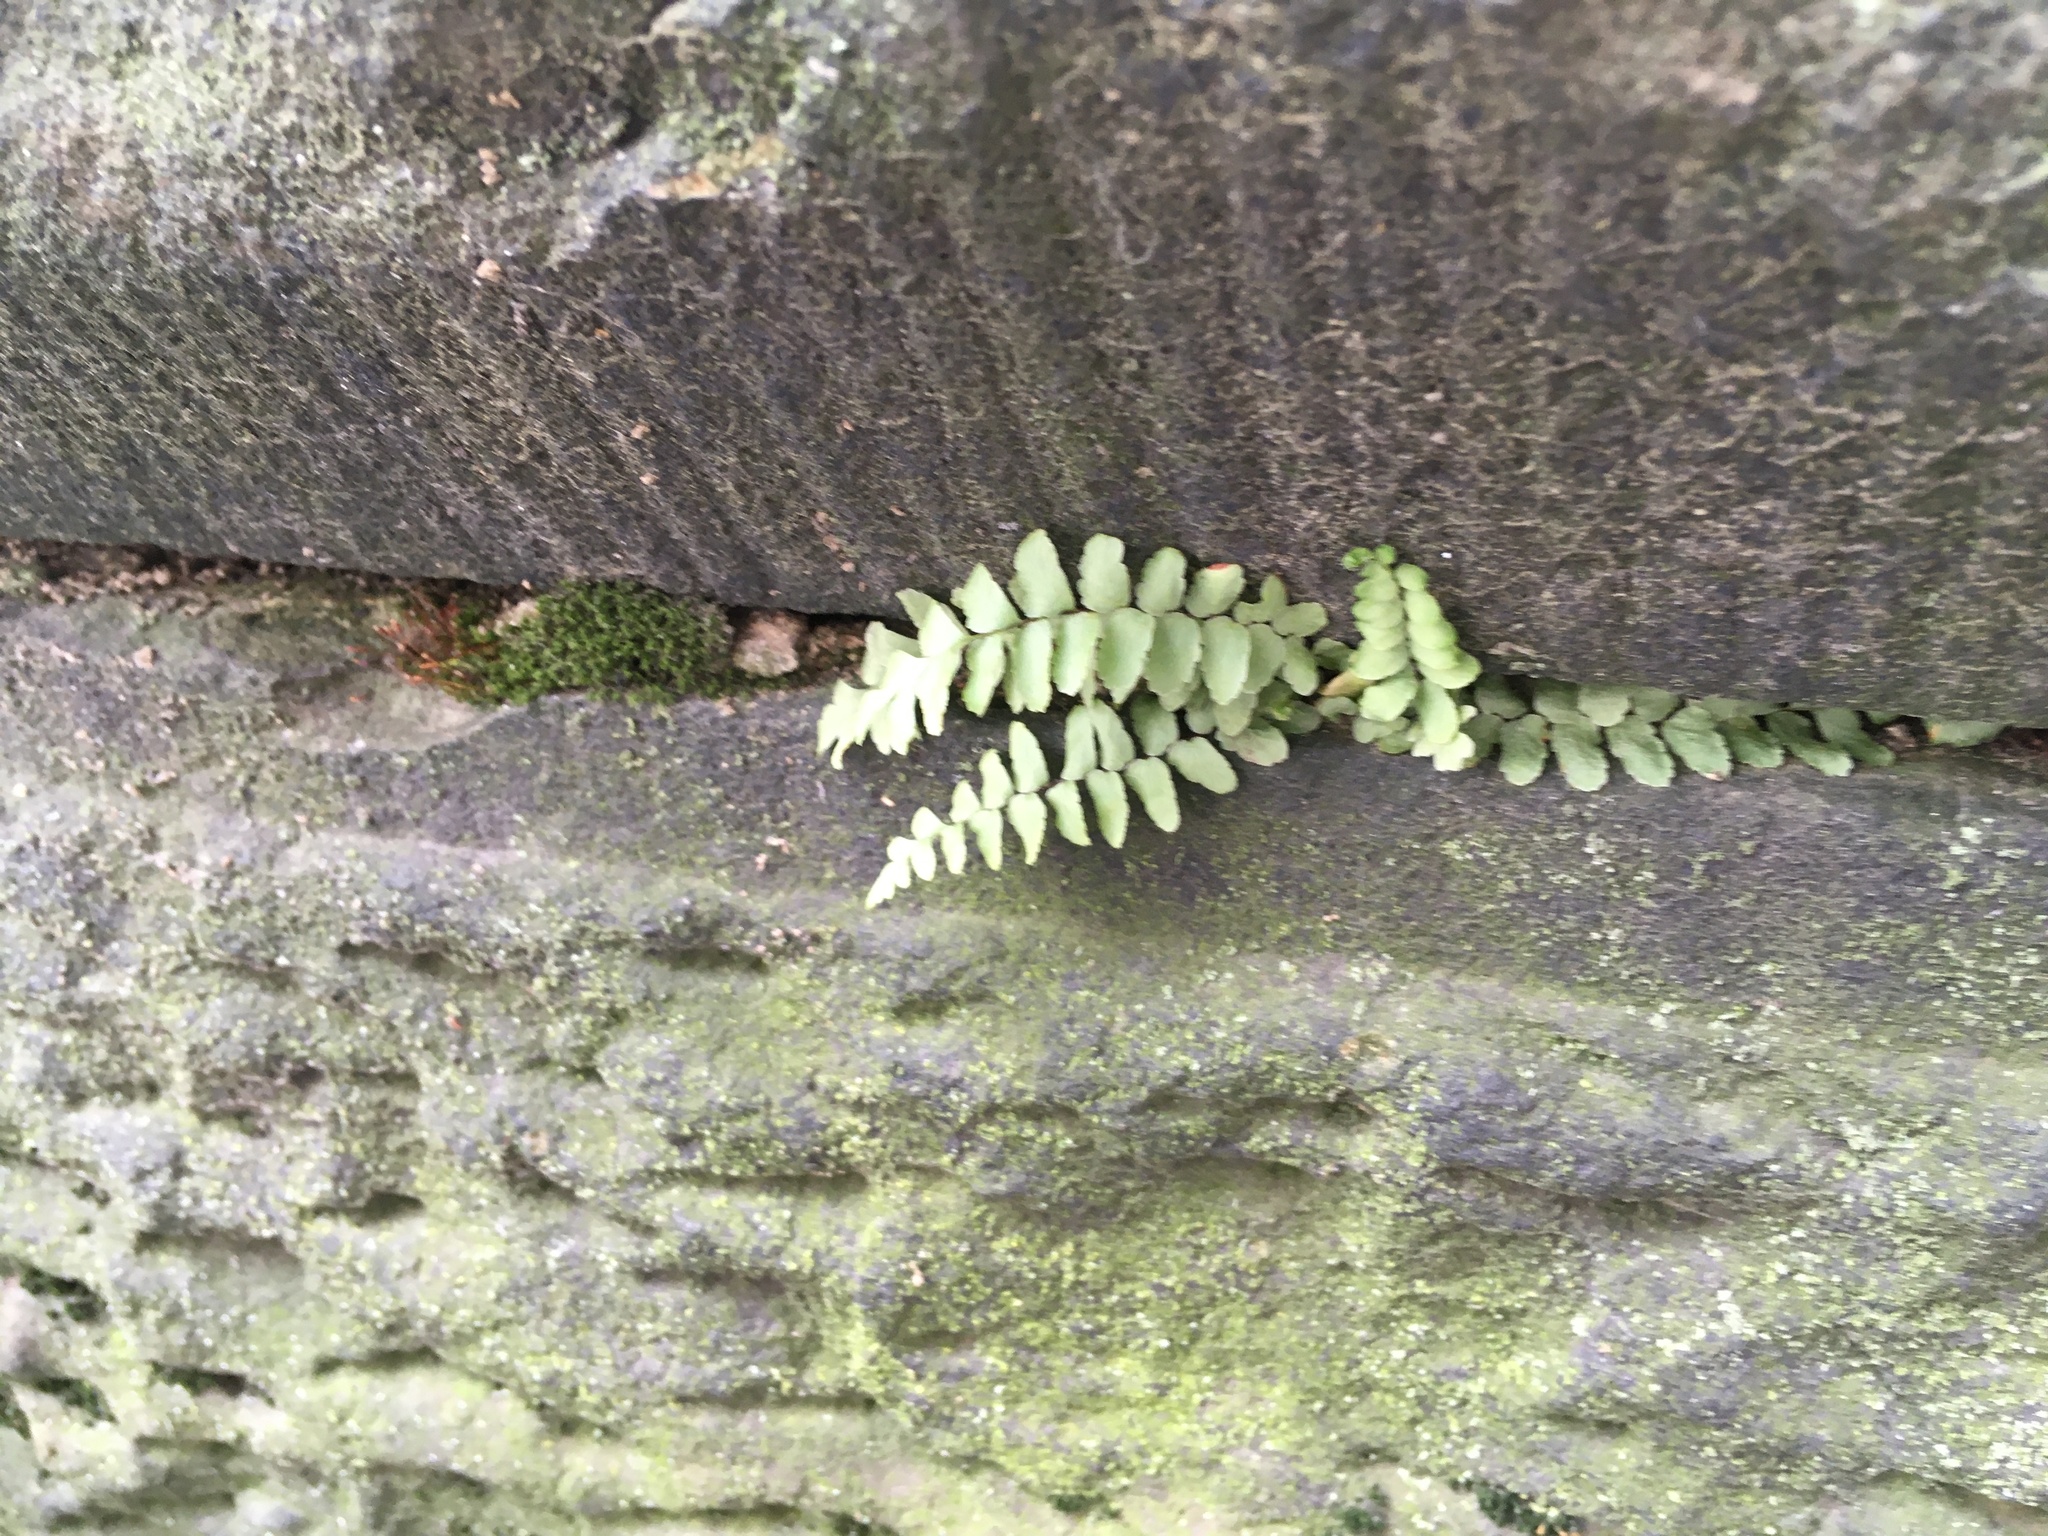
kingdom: Plantae
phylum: Tracheophyta
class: Polypodiopsida
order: Polypodiales
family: Aspleniaceae
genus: Asplenium
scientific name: Asplenium platyneuron
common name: Ebony spleenwort
